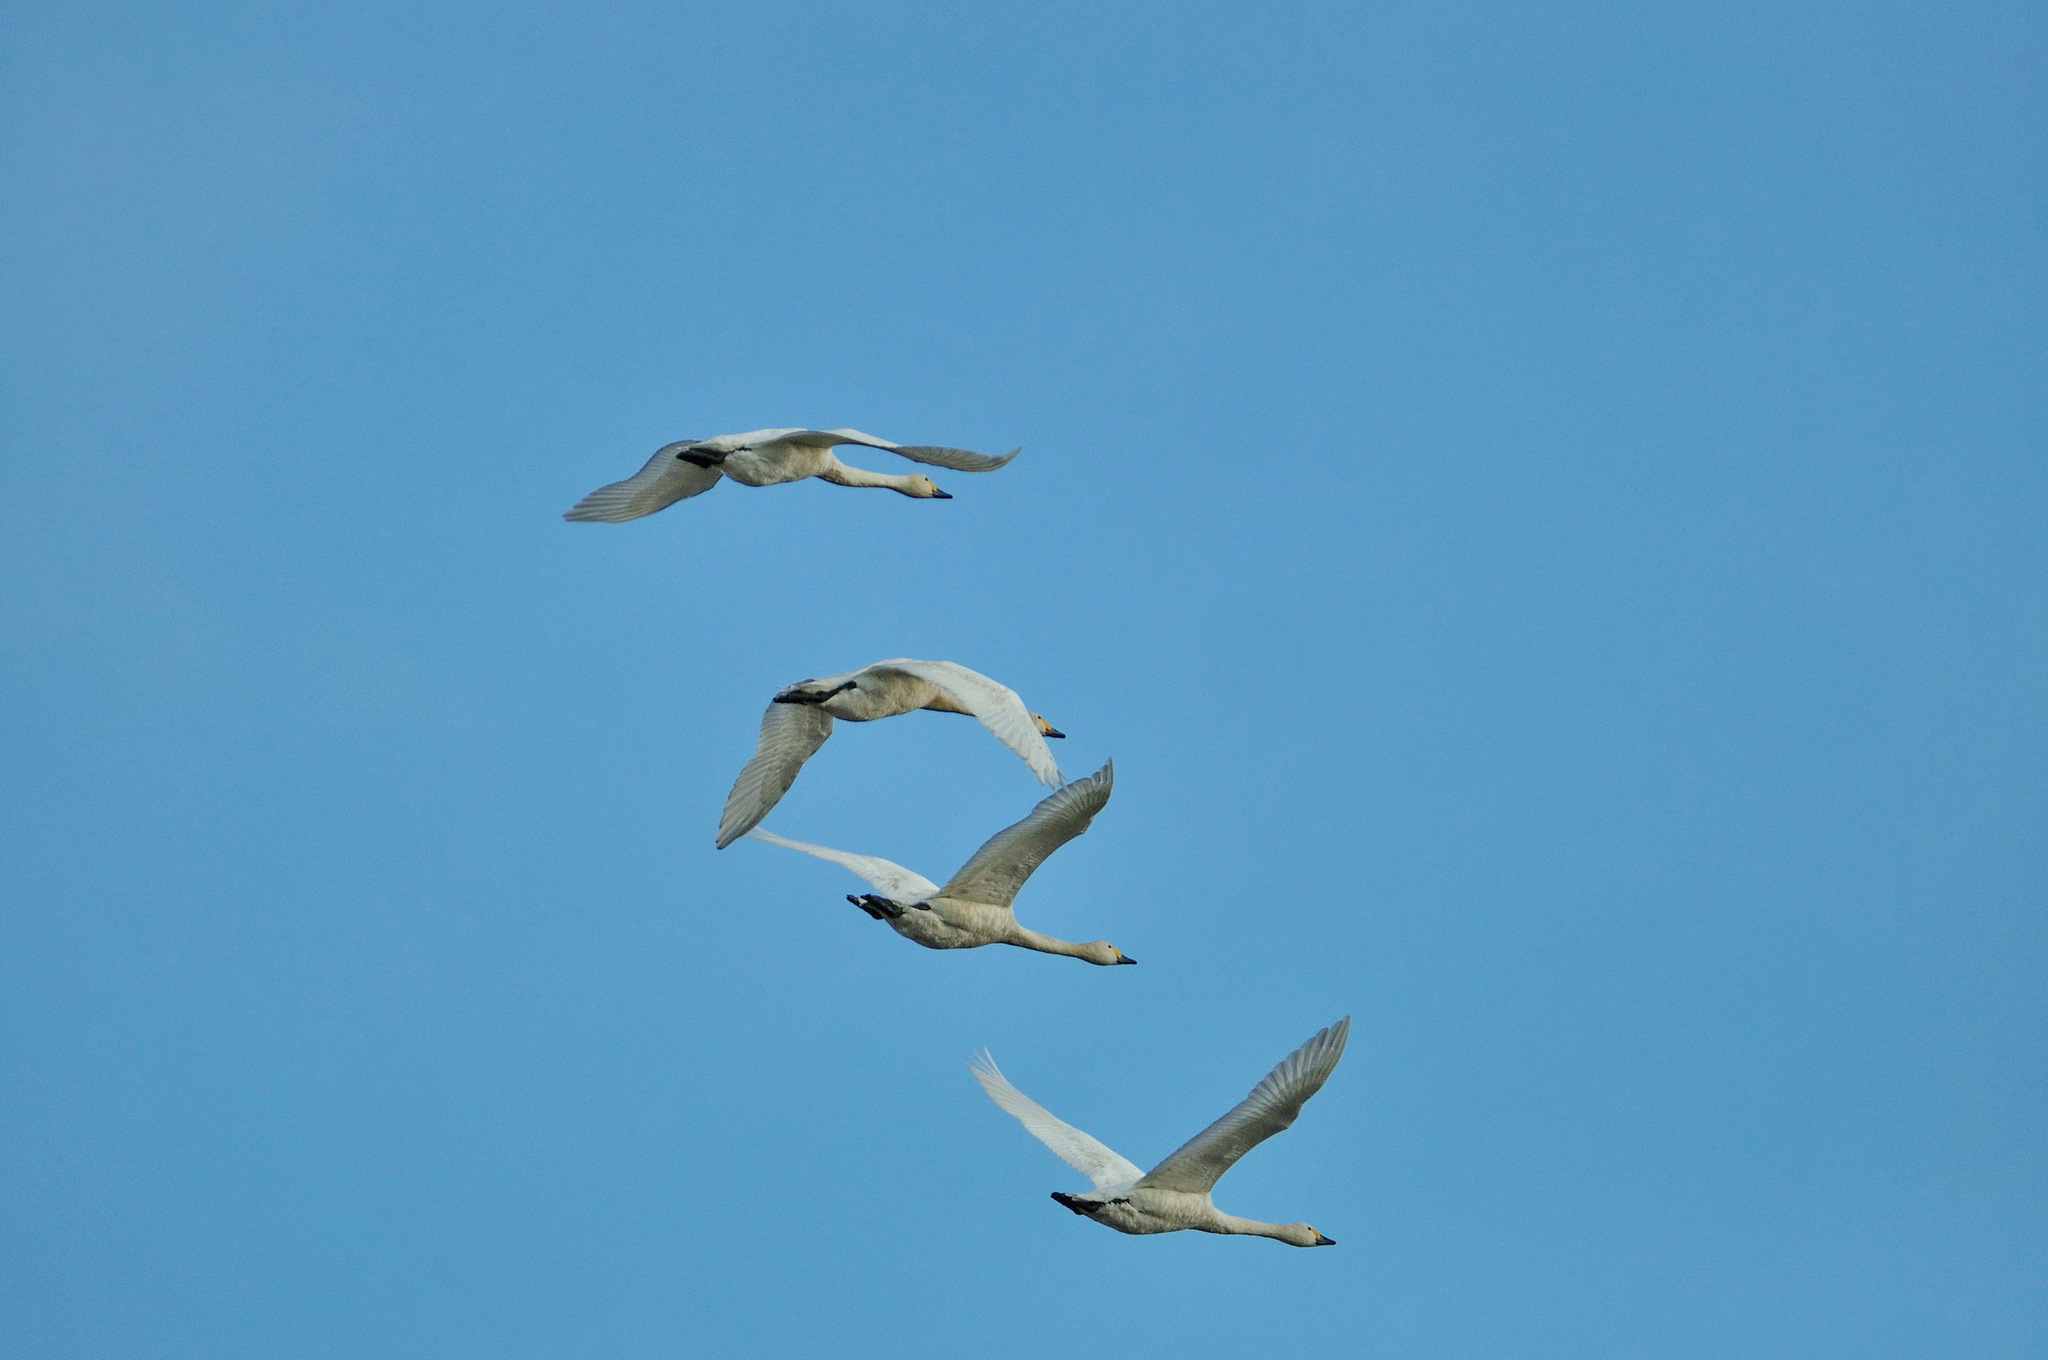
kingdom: Animalia
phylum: Chordata
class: Aves
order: Anseriformes
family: Anatidae
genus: Cygnus
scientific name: Cygnus columbianus
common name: Tundra swan
